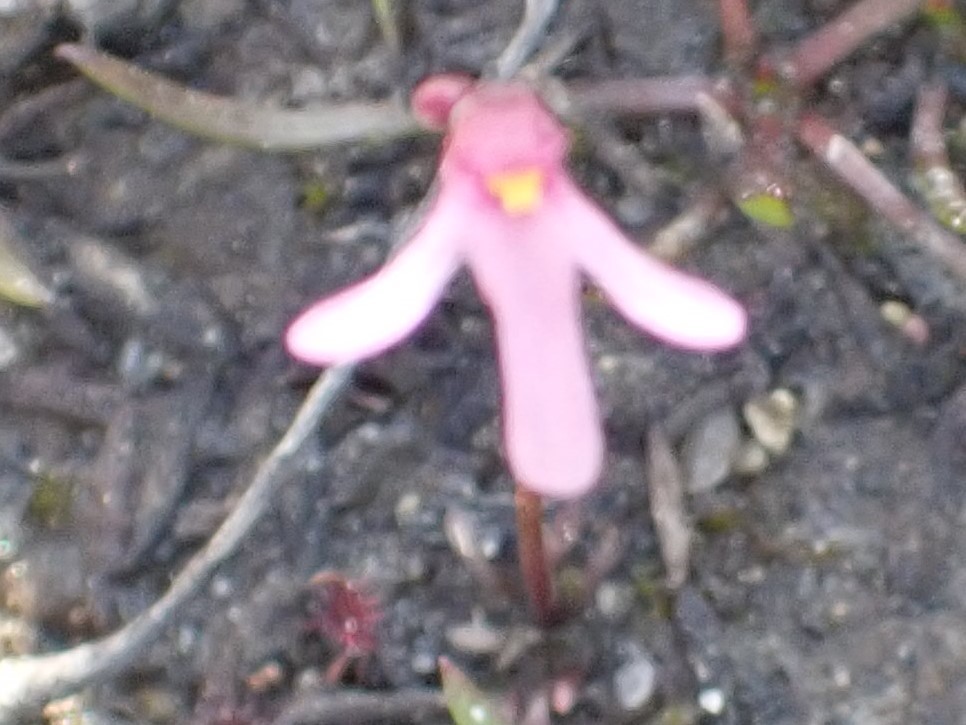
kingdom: Plantae
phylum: Tracheophyta
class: Magnoliopsida
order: Lamiales
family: Lentibulariaceae
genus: Utricularia
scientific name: Utricularia tenella
